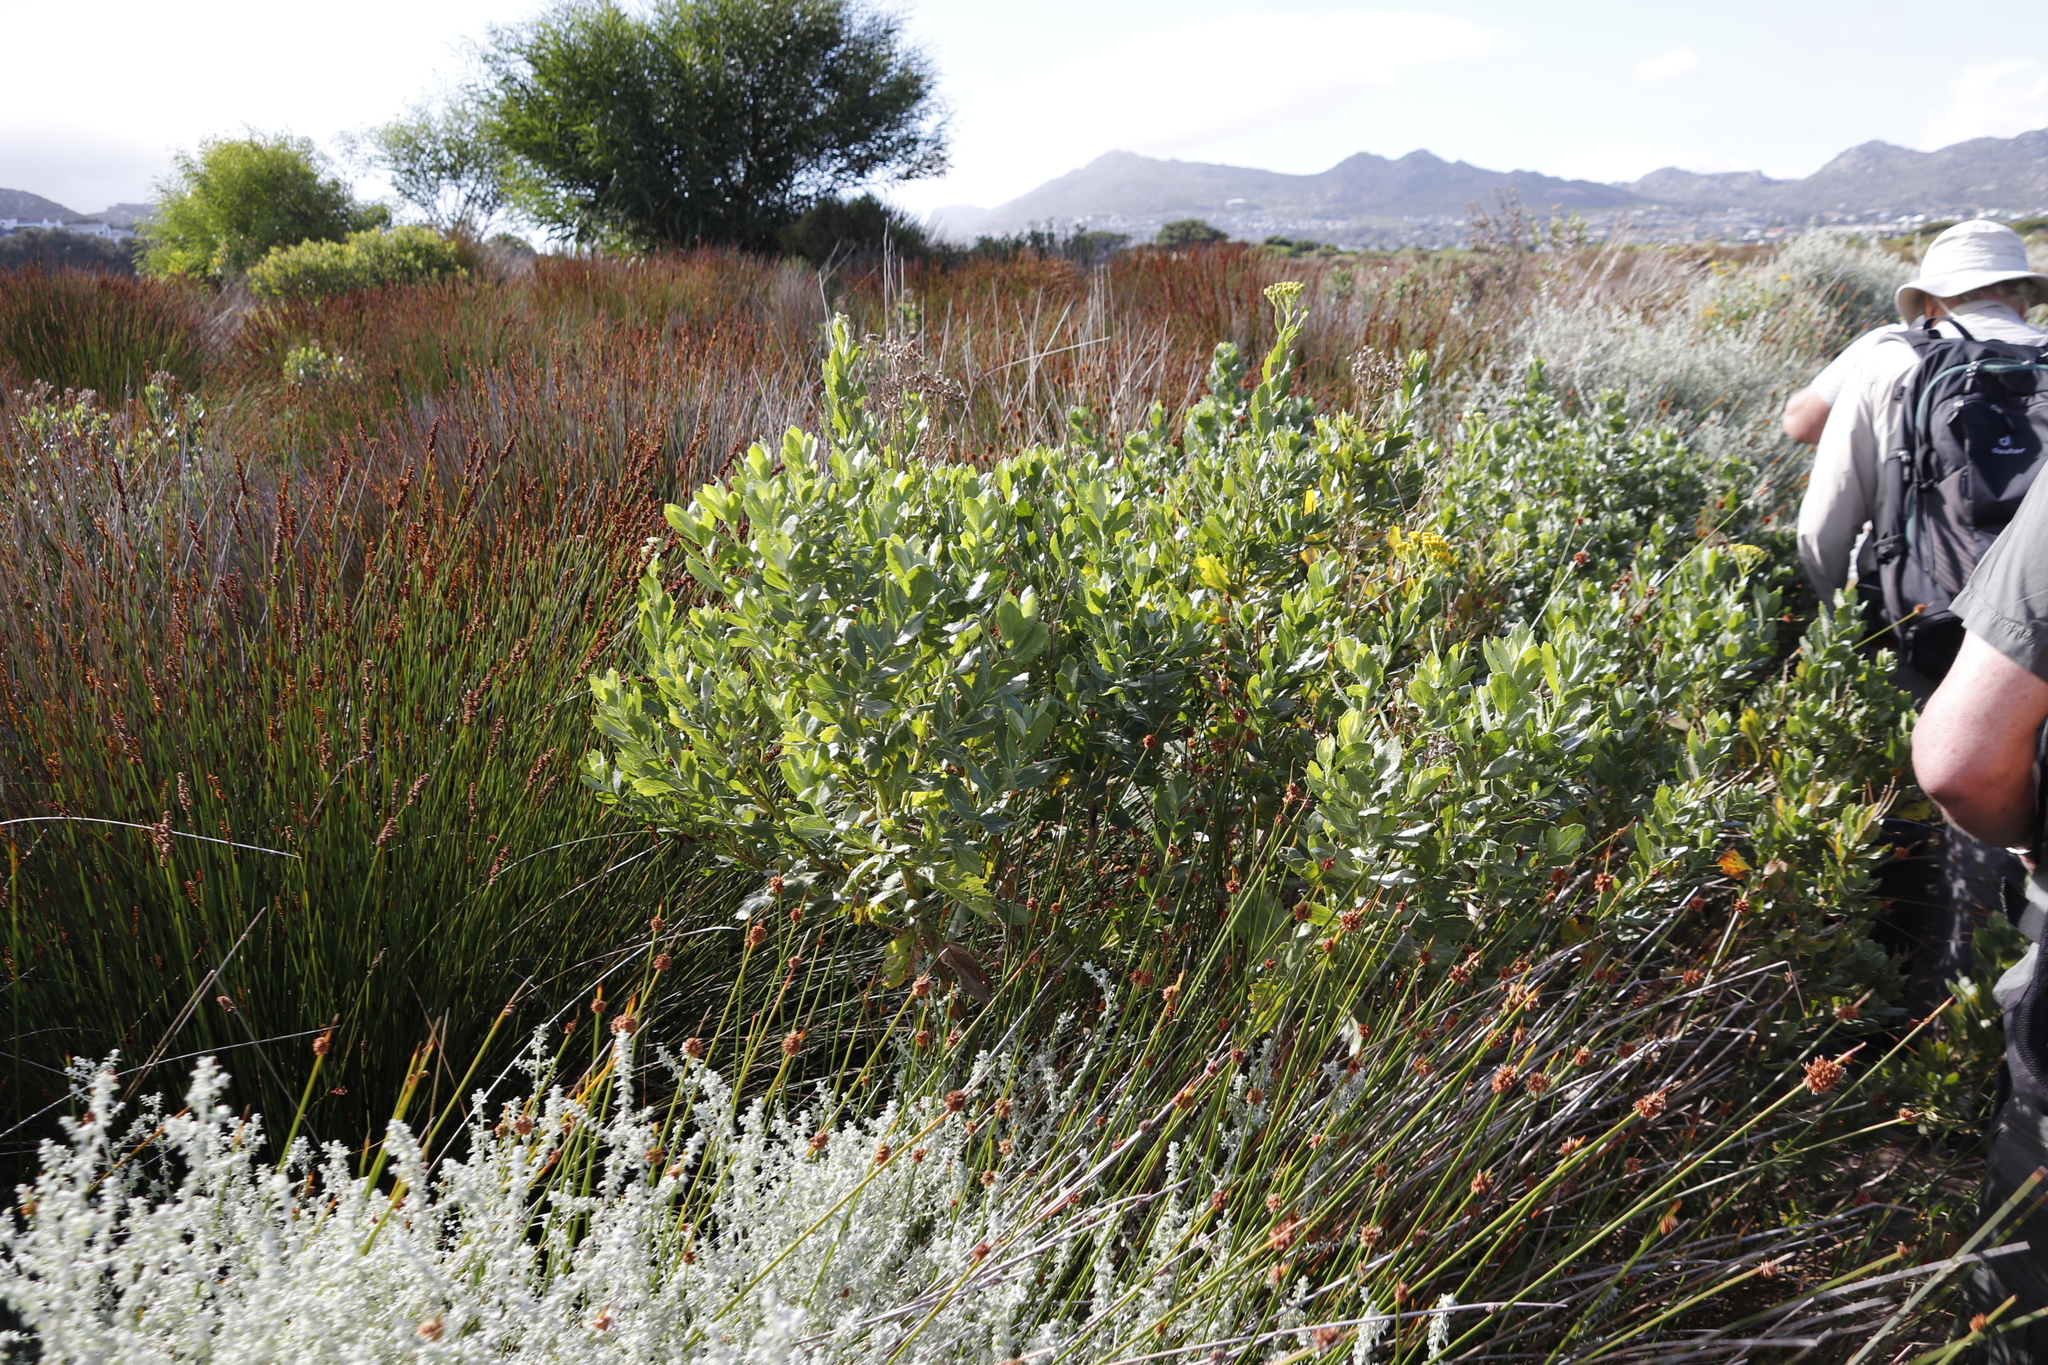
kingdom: Plantae
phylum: Tracheophyta
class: Magnoliopsida
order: Asterales
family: Asteraceae
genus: Osteospermum
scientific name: Osteospermum moniliferum
